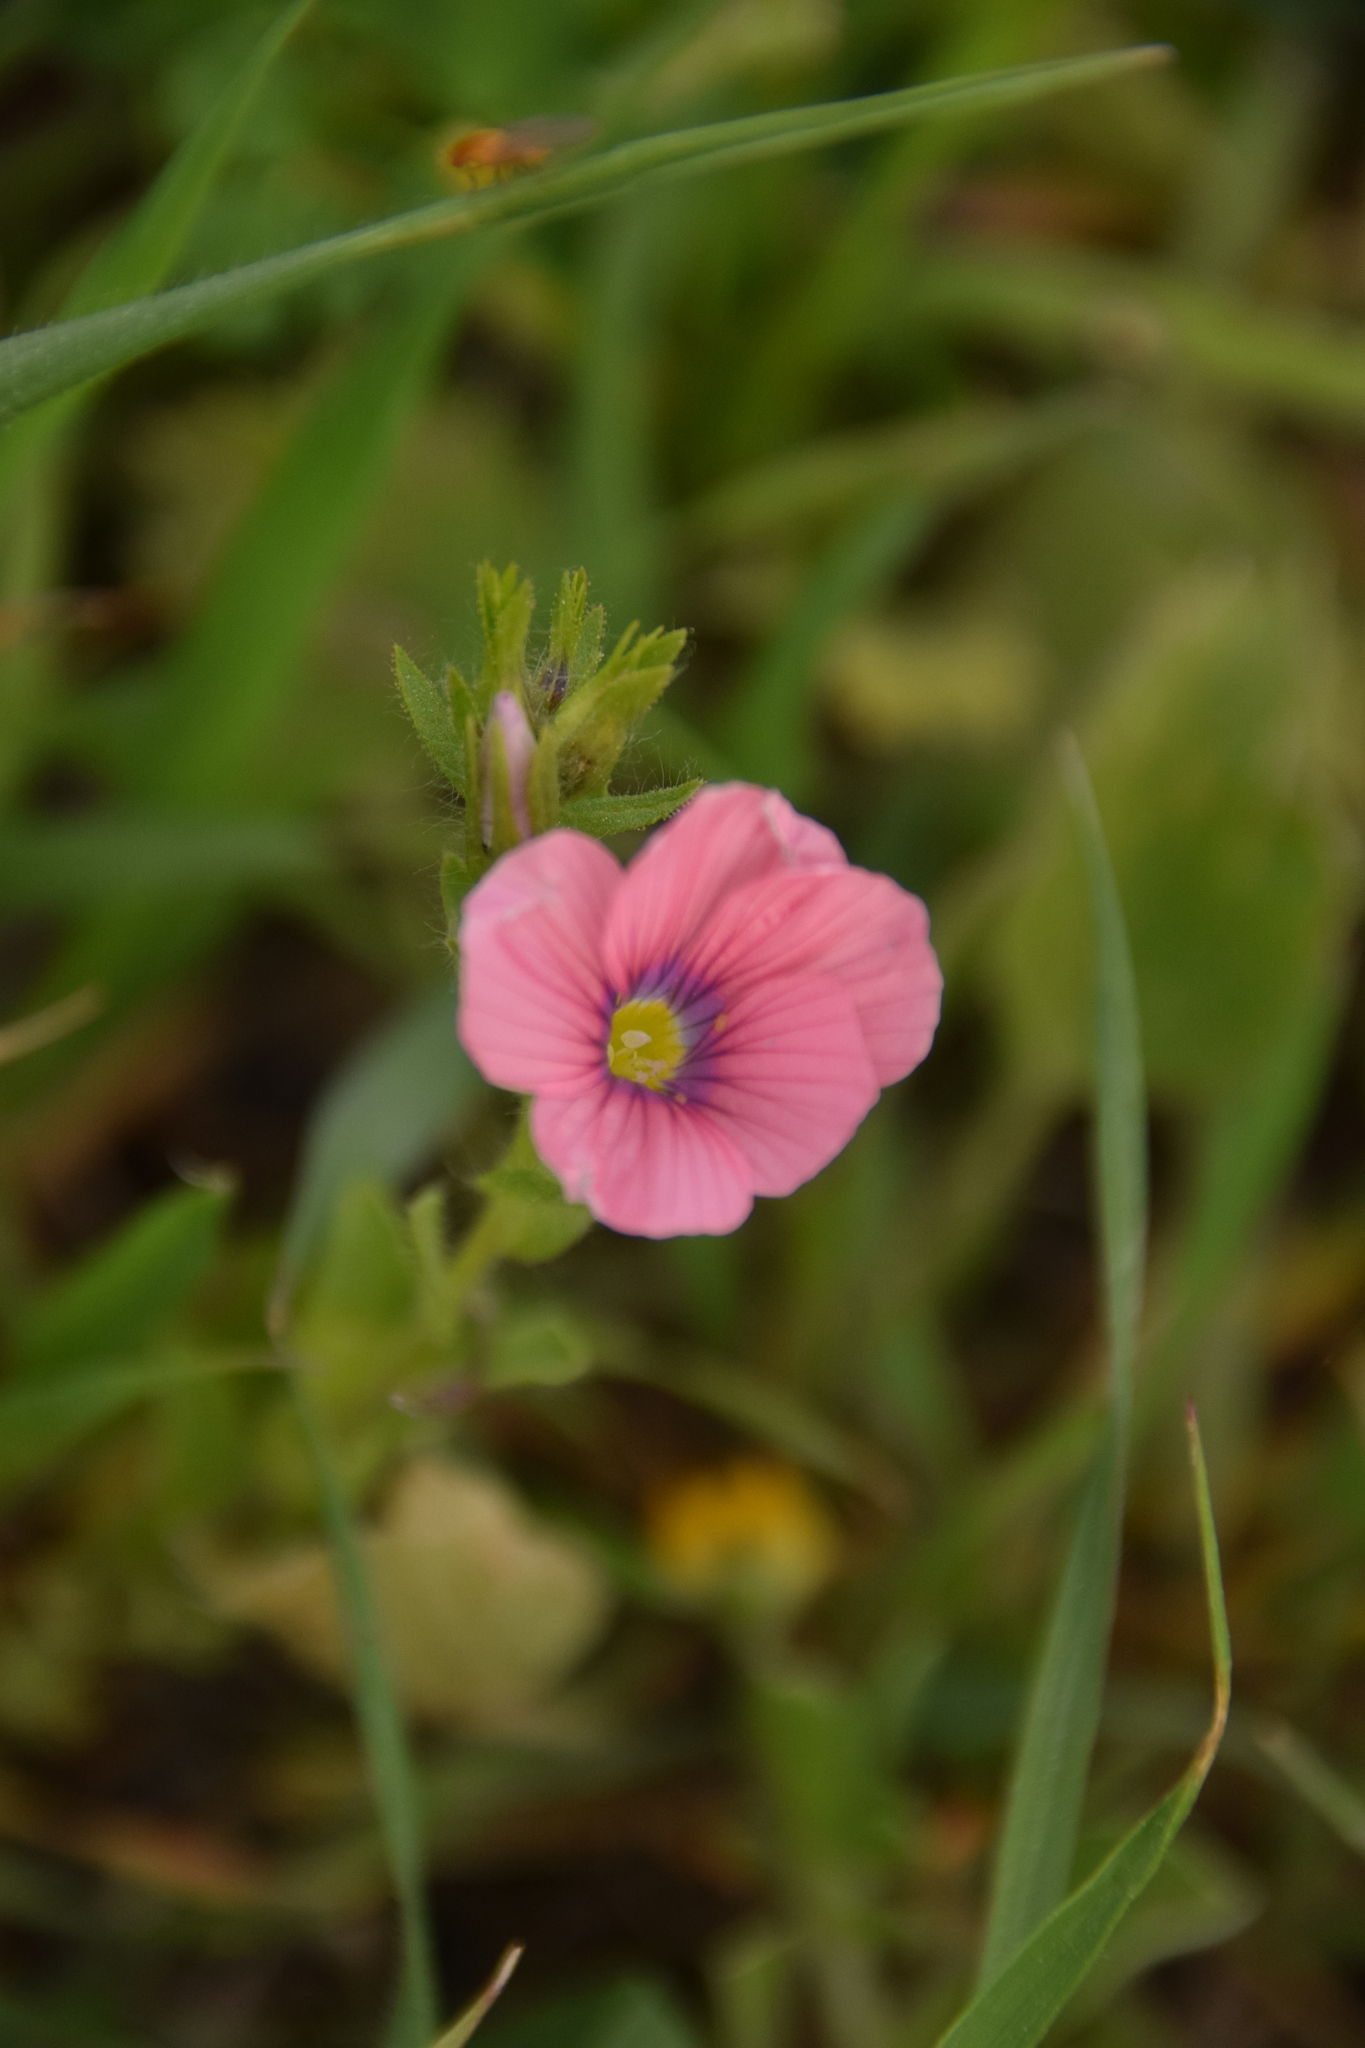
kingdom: Plantae
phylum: Tracheophyta
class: Magnoliopsida
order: Malpighiales
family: Linaceae
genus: Linum
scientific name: Linum pubescens
